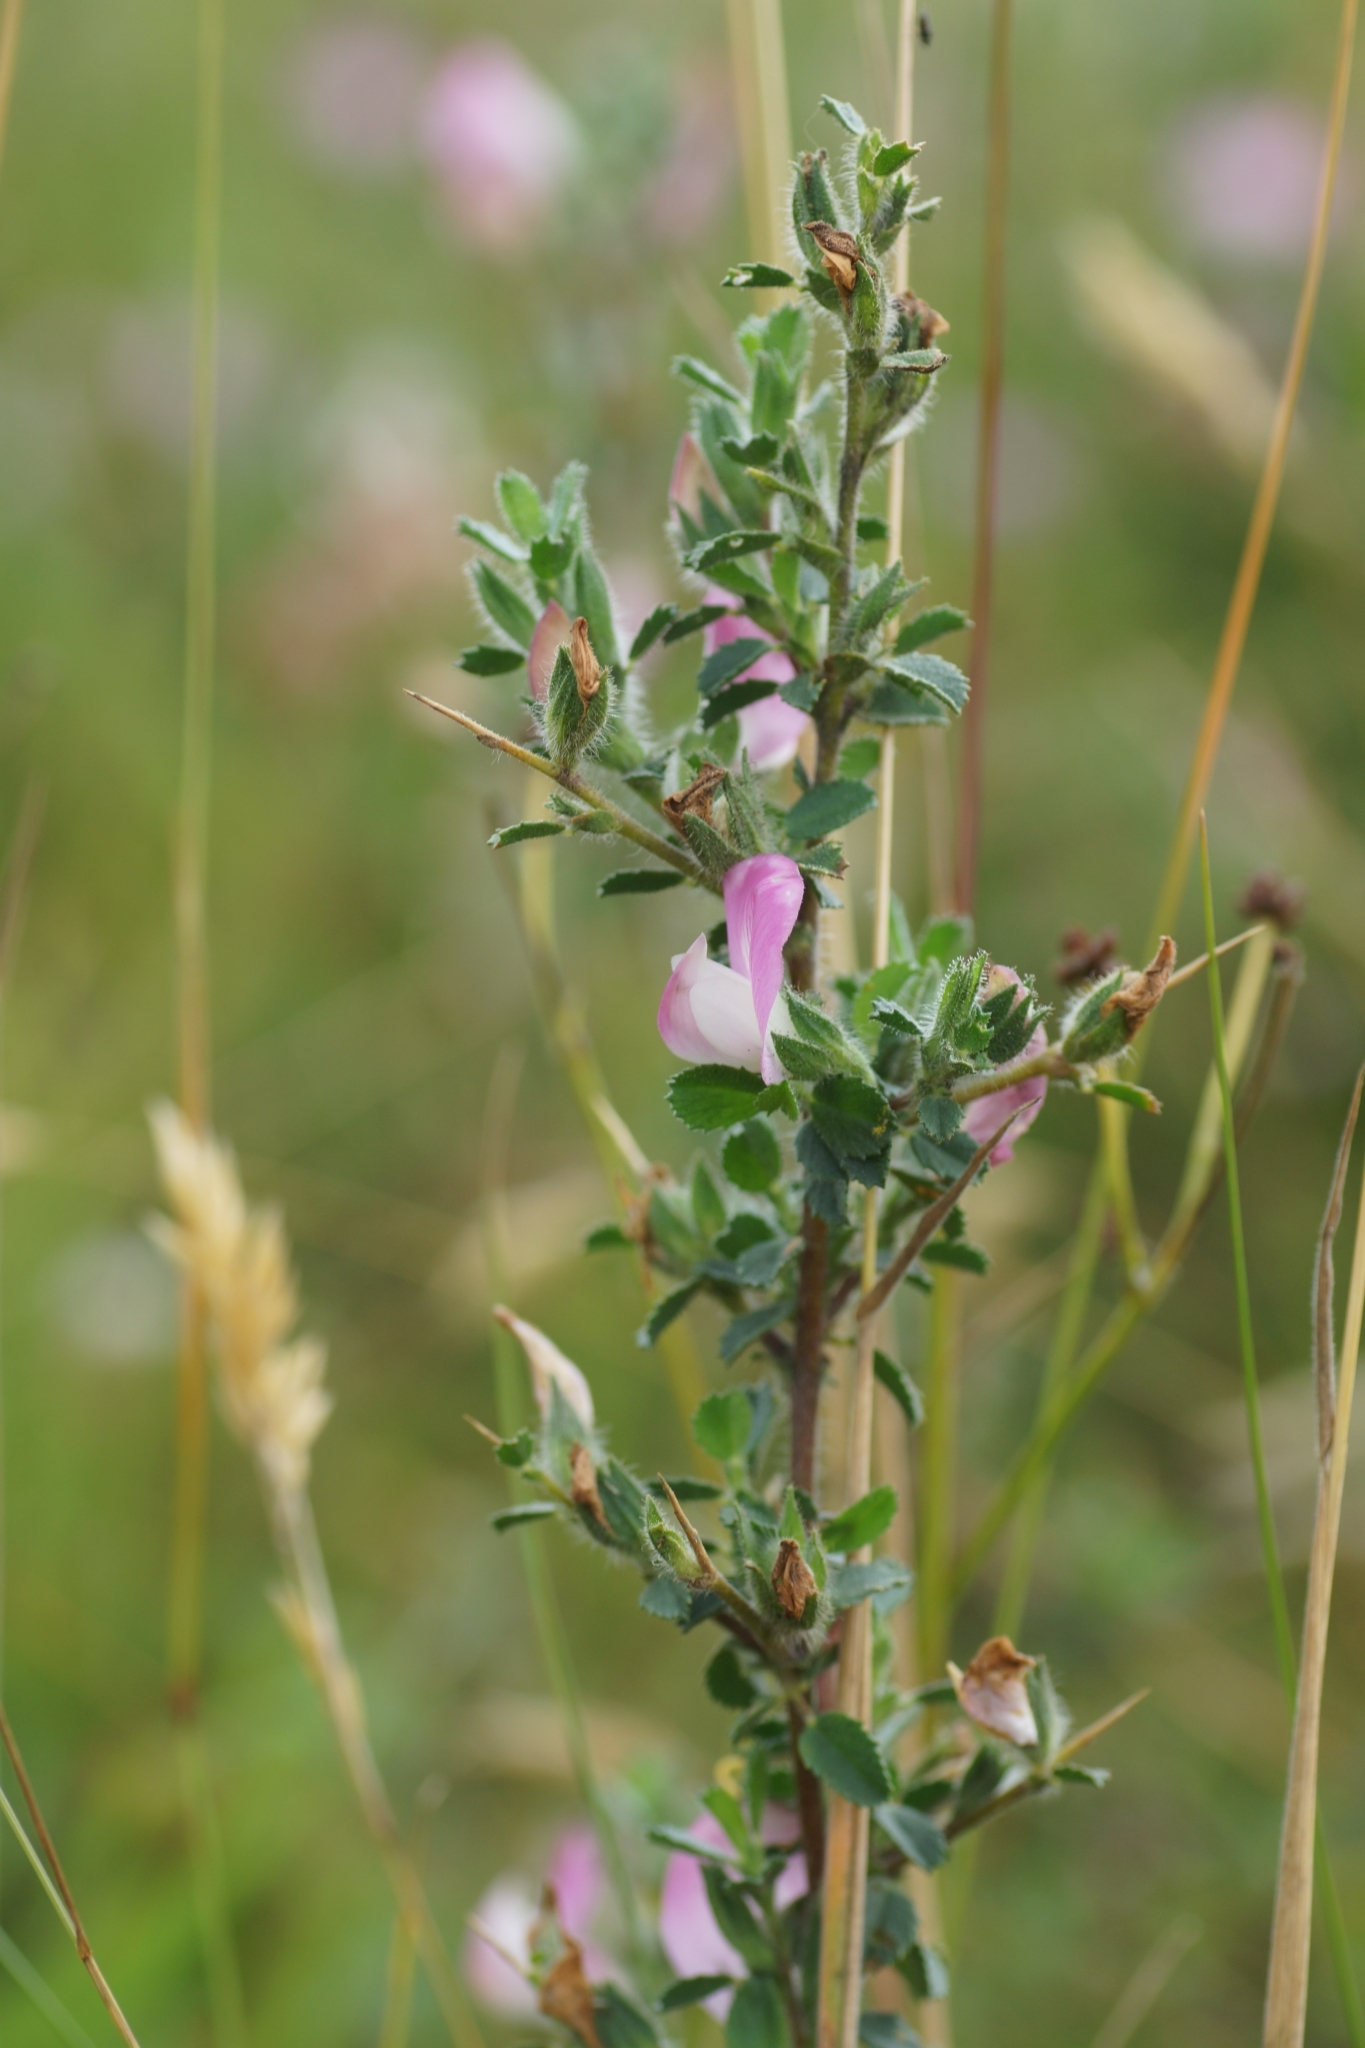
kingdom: Plantae
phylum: Tracheophyta
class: Magnoliopsida
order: Fabales
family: Fabaceae
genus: Ononis
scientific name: Ononis spinosa
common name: Spiny restharrow
